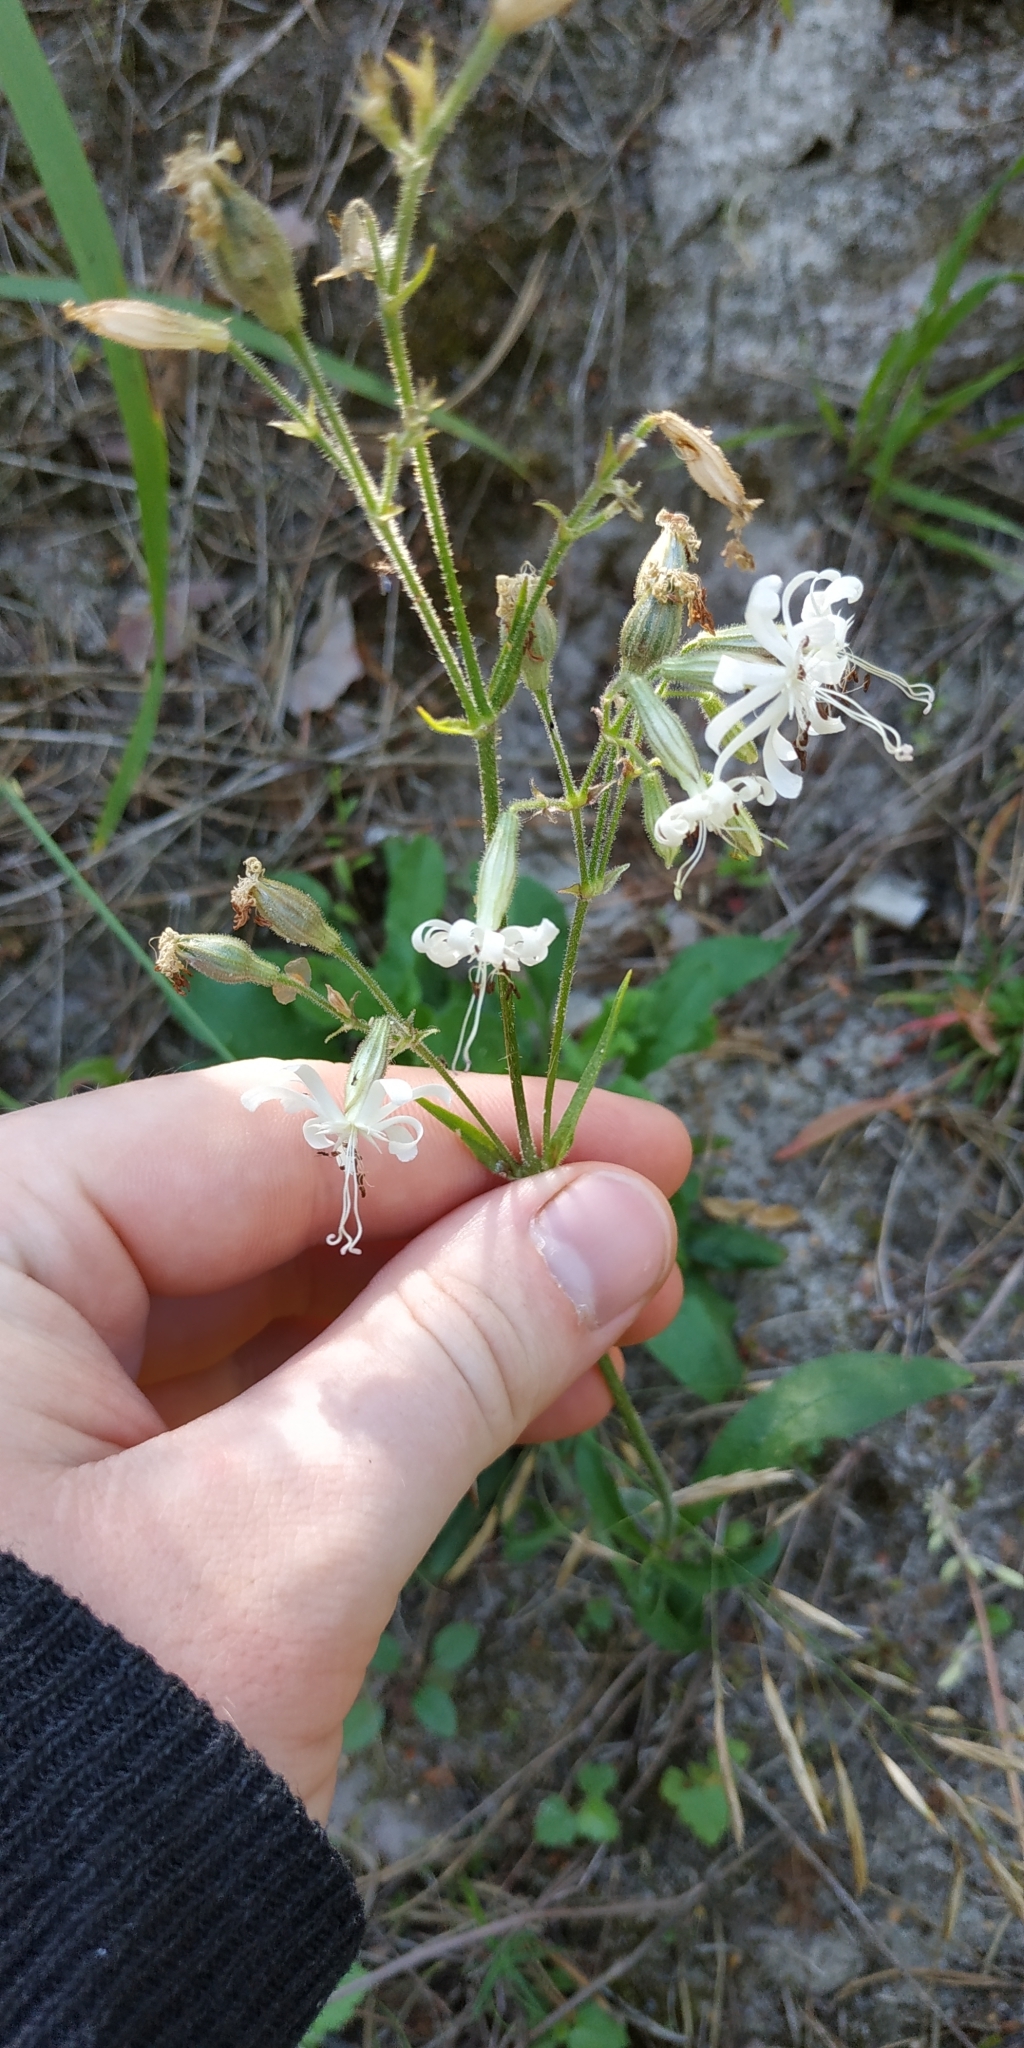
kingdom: Plantae
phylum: Tracheophyta
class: Magnoliopsida
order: Caryophyllales
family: Caryophyllaceae
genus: Silene
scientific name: Silene nutans
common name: Nottingham catchfly
